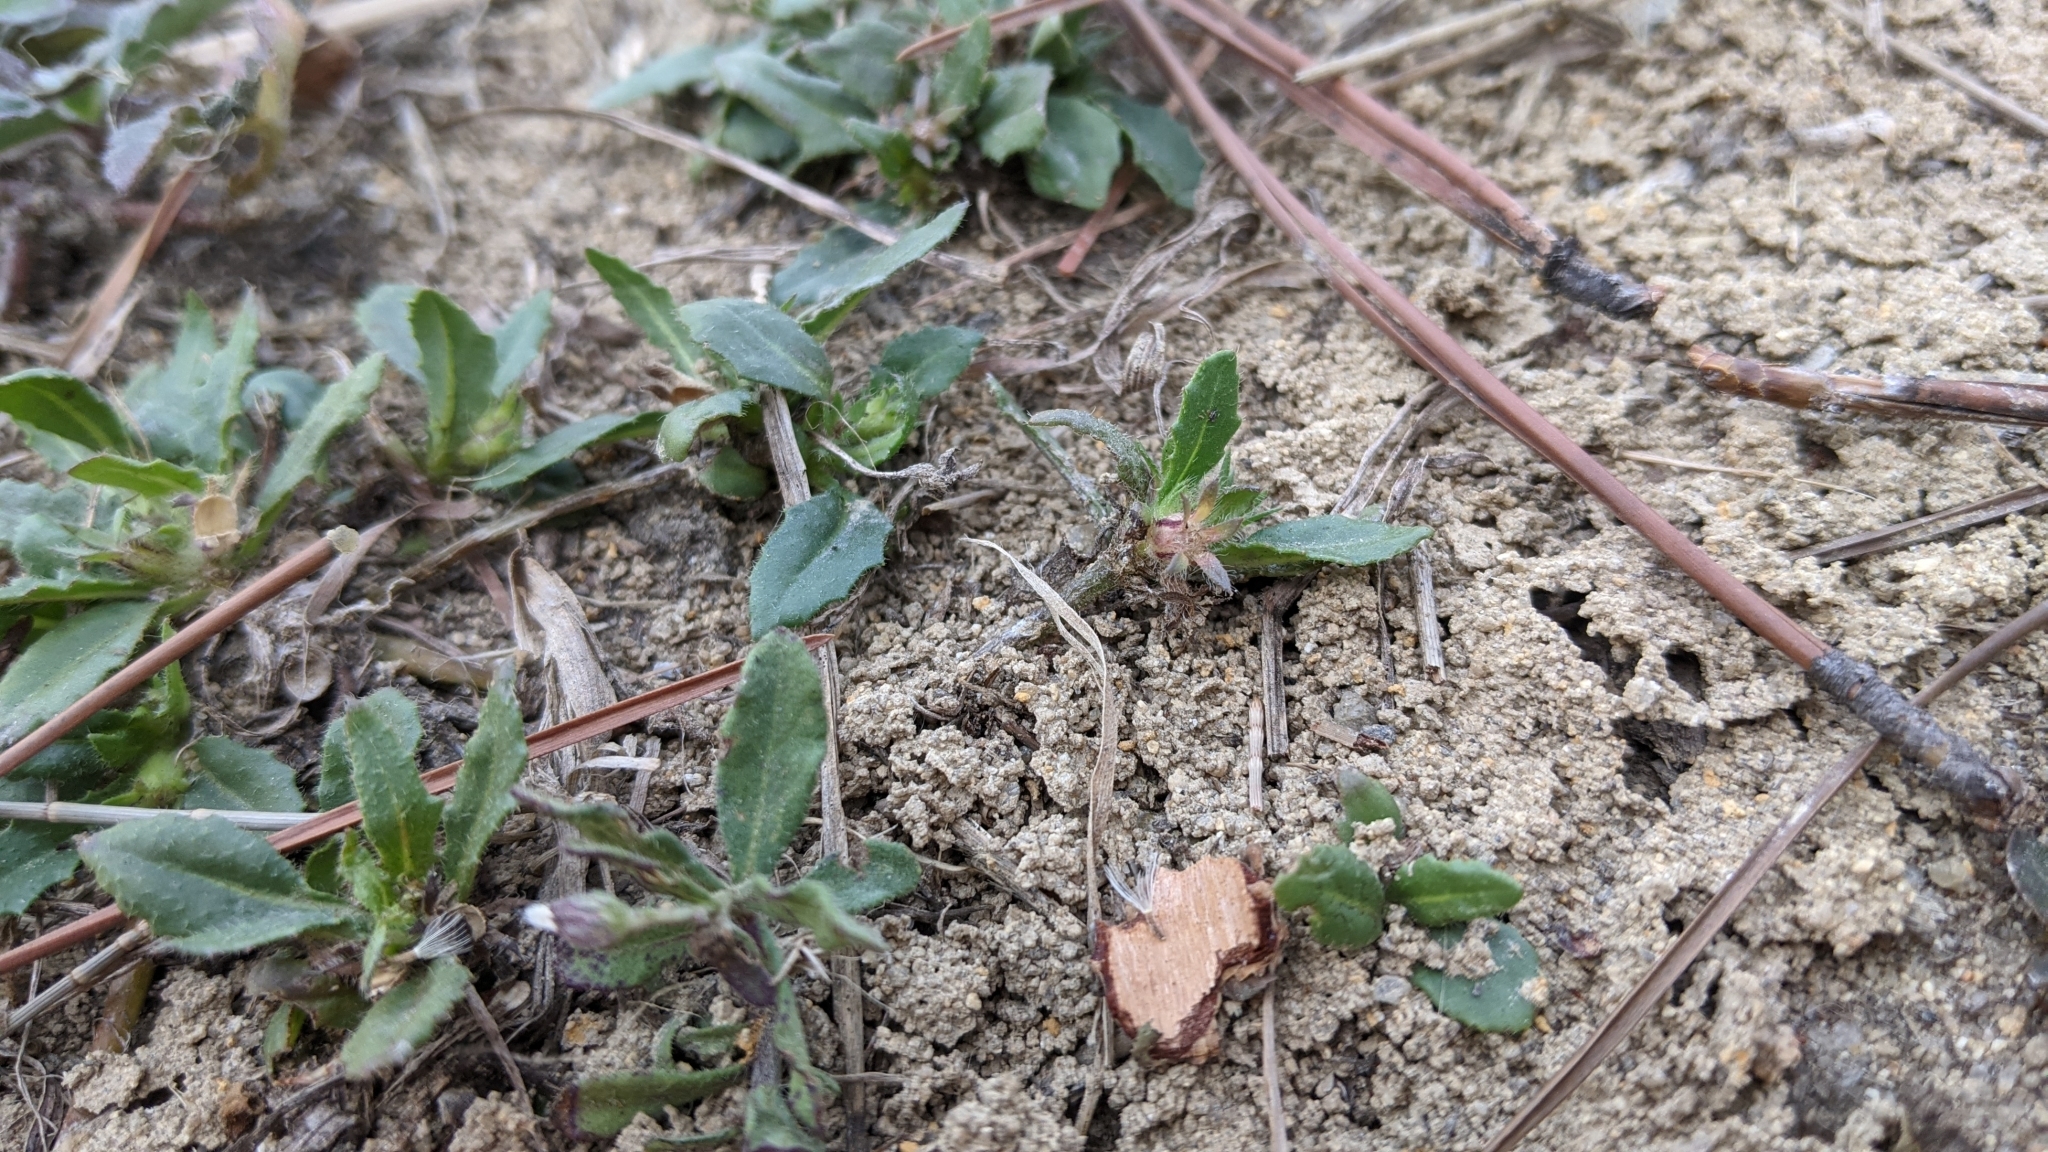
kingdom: Plantae
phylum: Tracheophyta
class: Magnoliopsida
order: Asterales
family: Goodeniaceae
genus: Goodenia
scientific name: Goodenia pilosa
